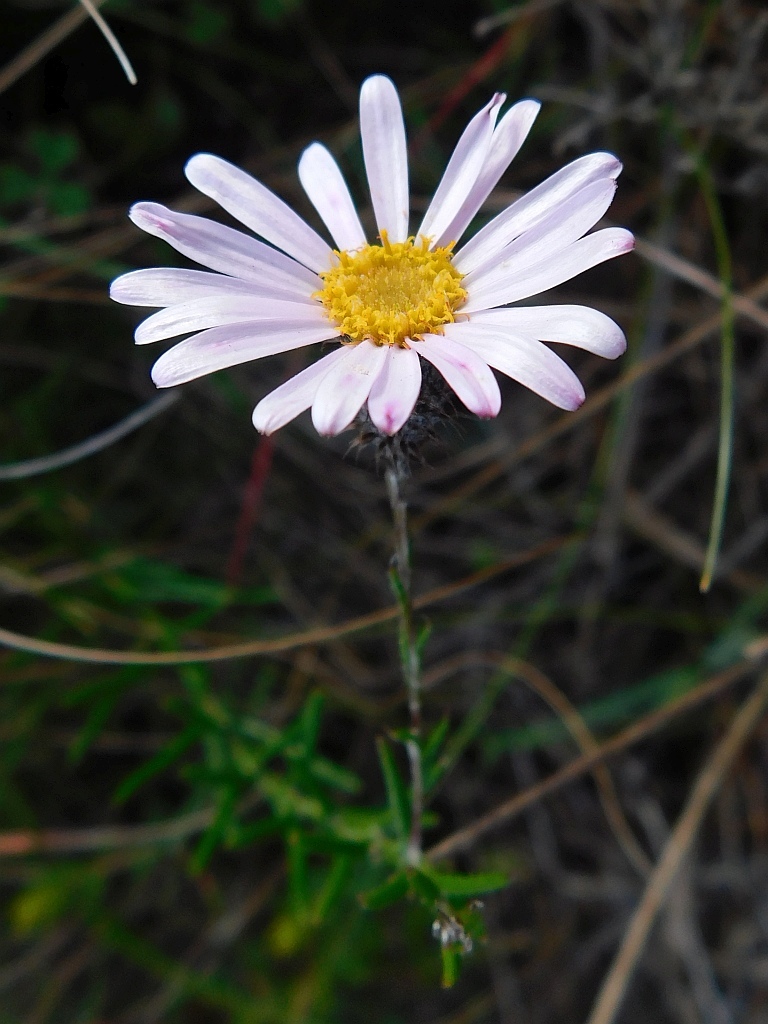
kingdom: Plantae
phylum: Tracheophyta
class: Magnoliopsida
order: Asterales
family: Asteraceae
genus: Athrixia
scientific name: Athrixia capensis
